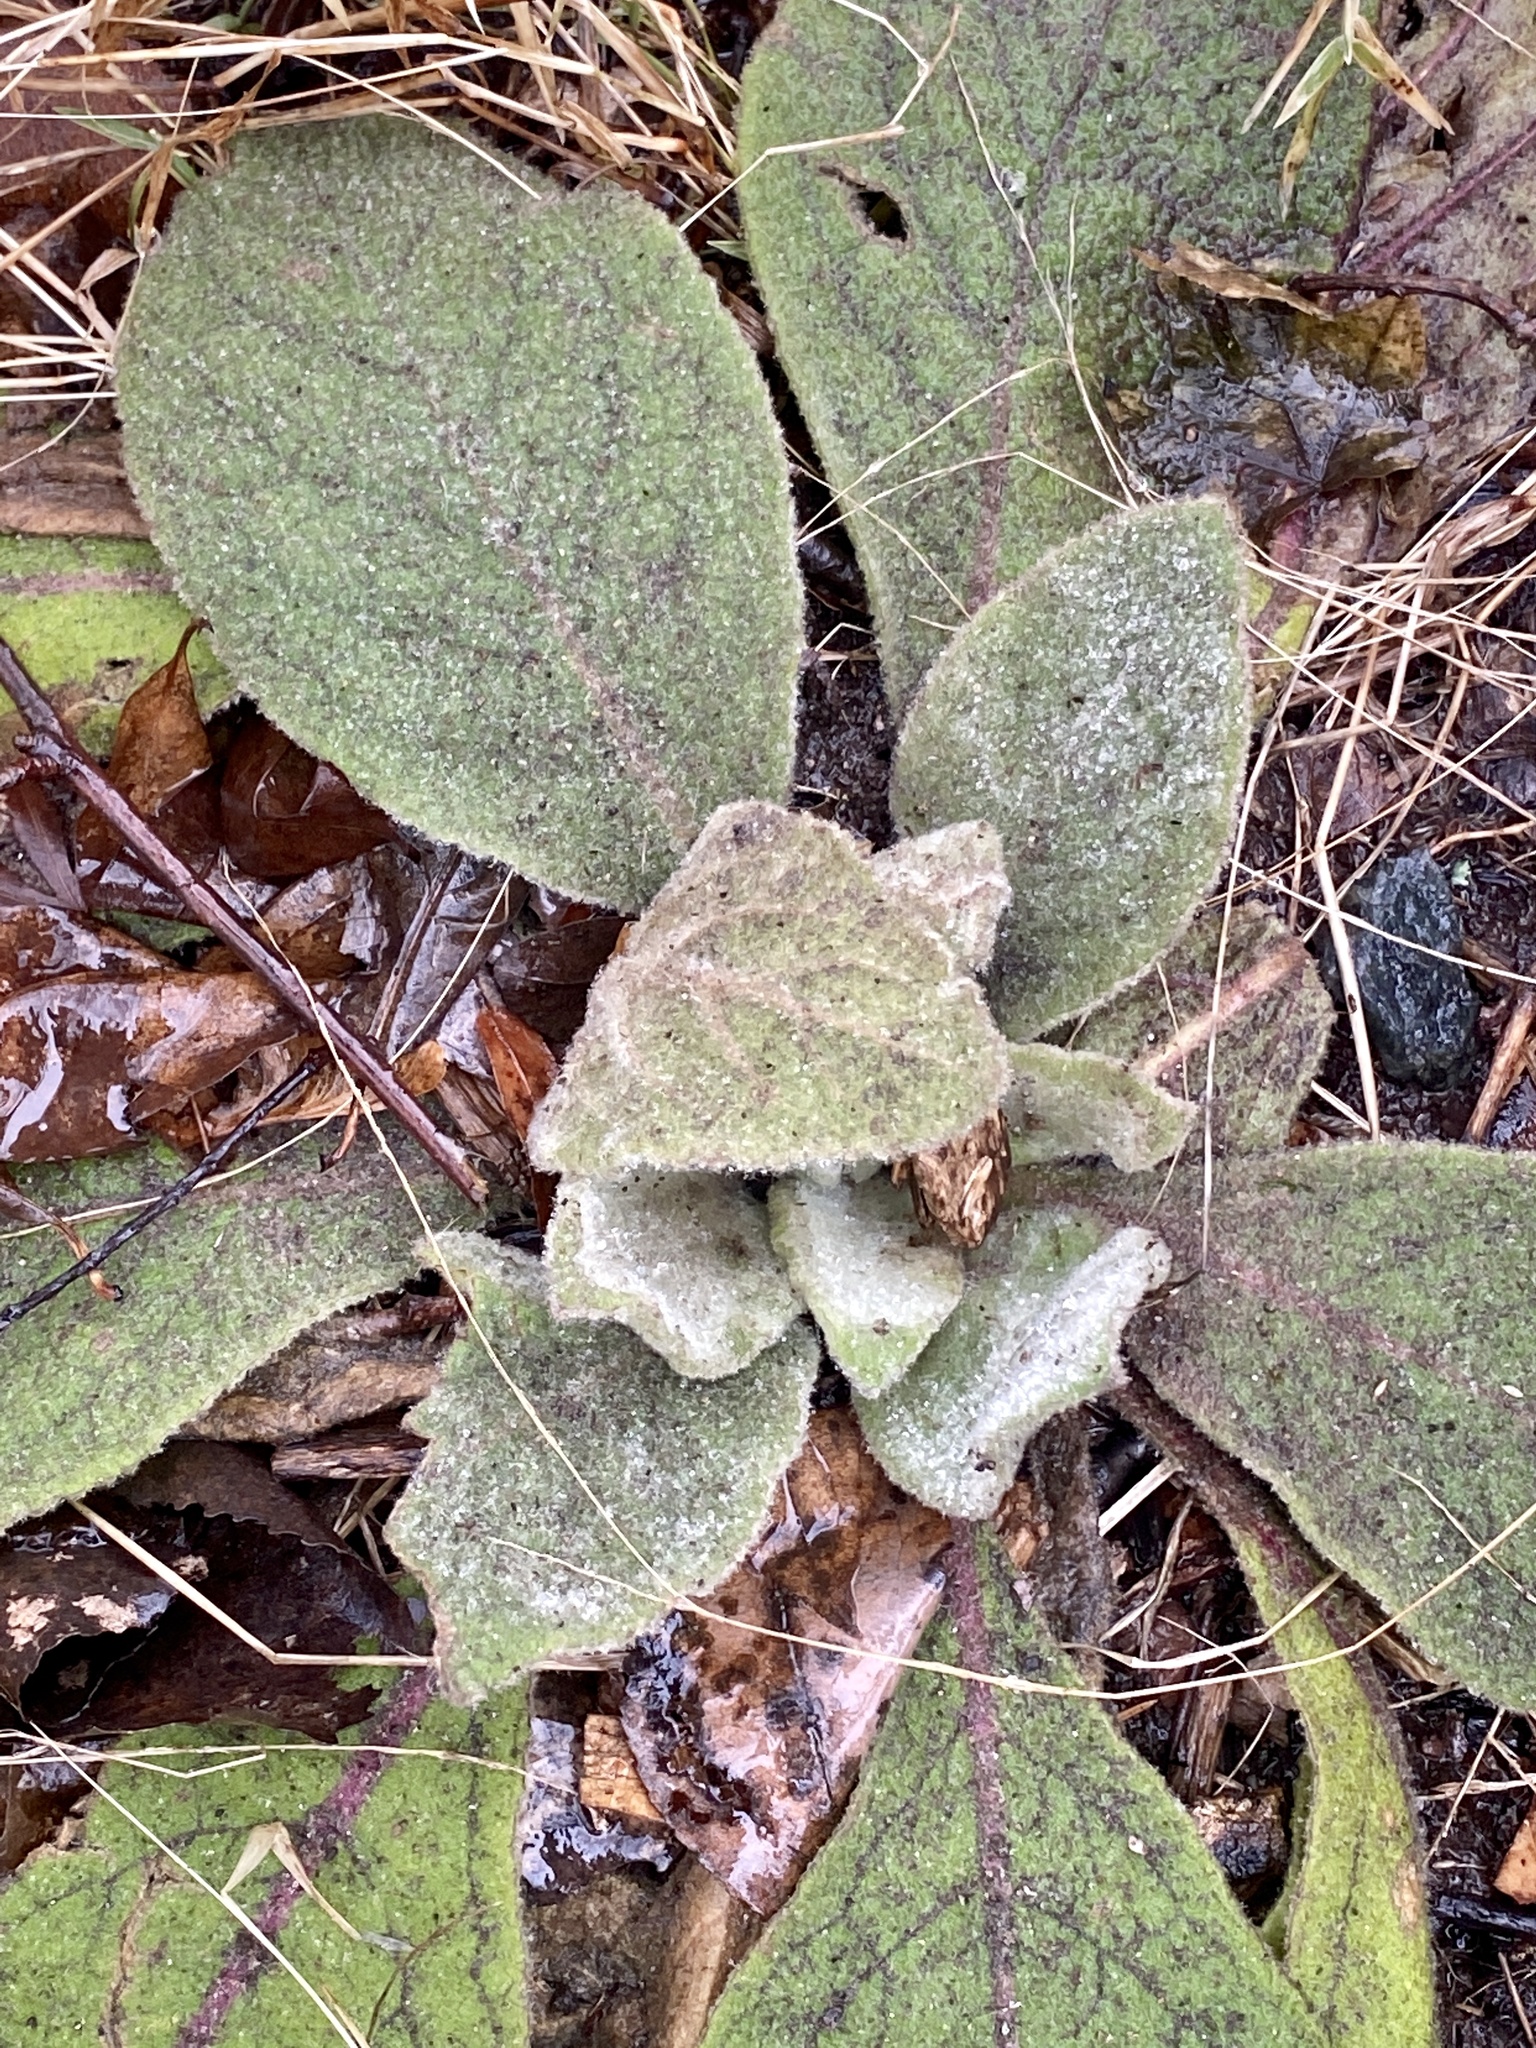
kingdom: Plantae
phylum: Tracheophyta
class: Magnoliopsida
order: Lamiales
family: Scrophulariaceae
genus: Verbascum
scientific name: Verbascum thapsus
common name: Common mullein
